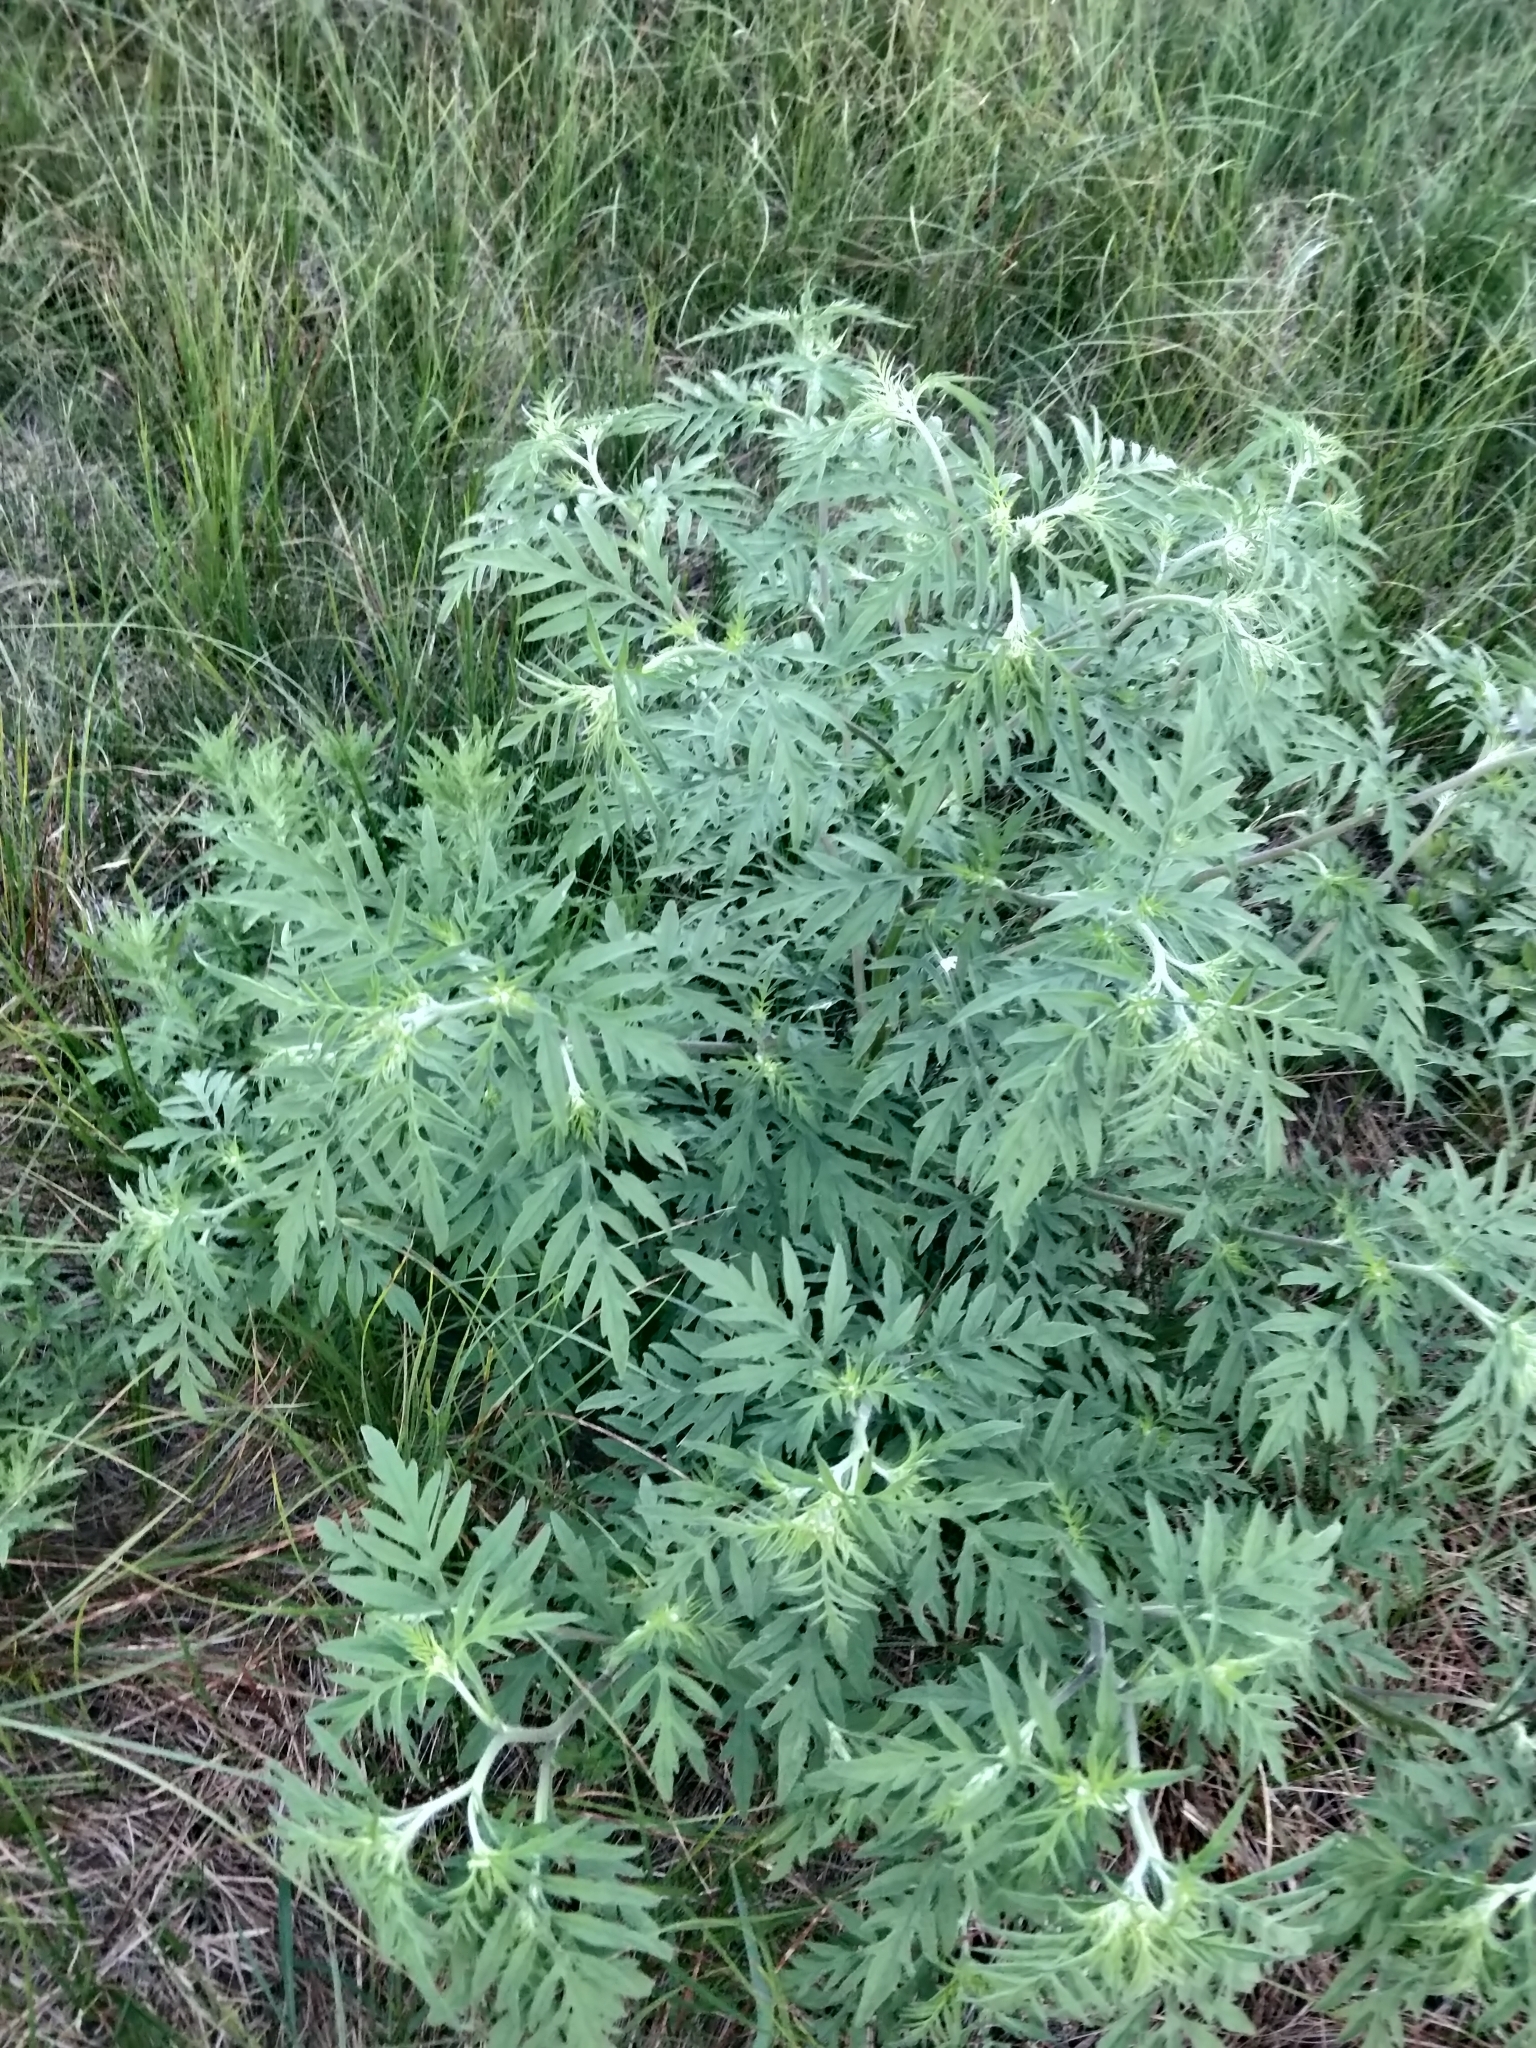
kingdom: Plantae
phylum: Tracheophyta
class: Magnoliopsida
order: Asterales
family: Asteraceae
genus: Ambrosia
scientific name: Ambrosia artemisiifolia
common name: Annual ragweed
